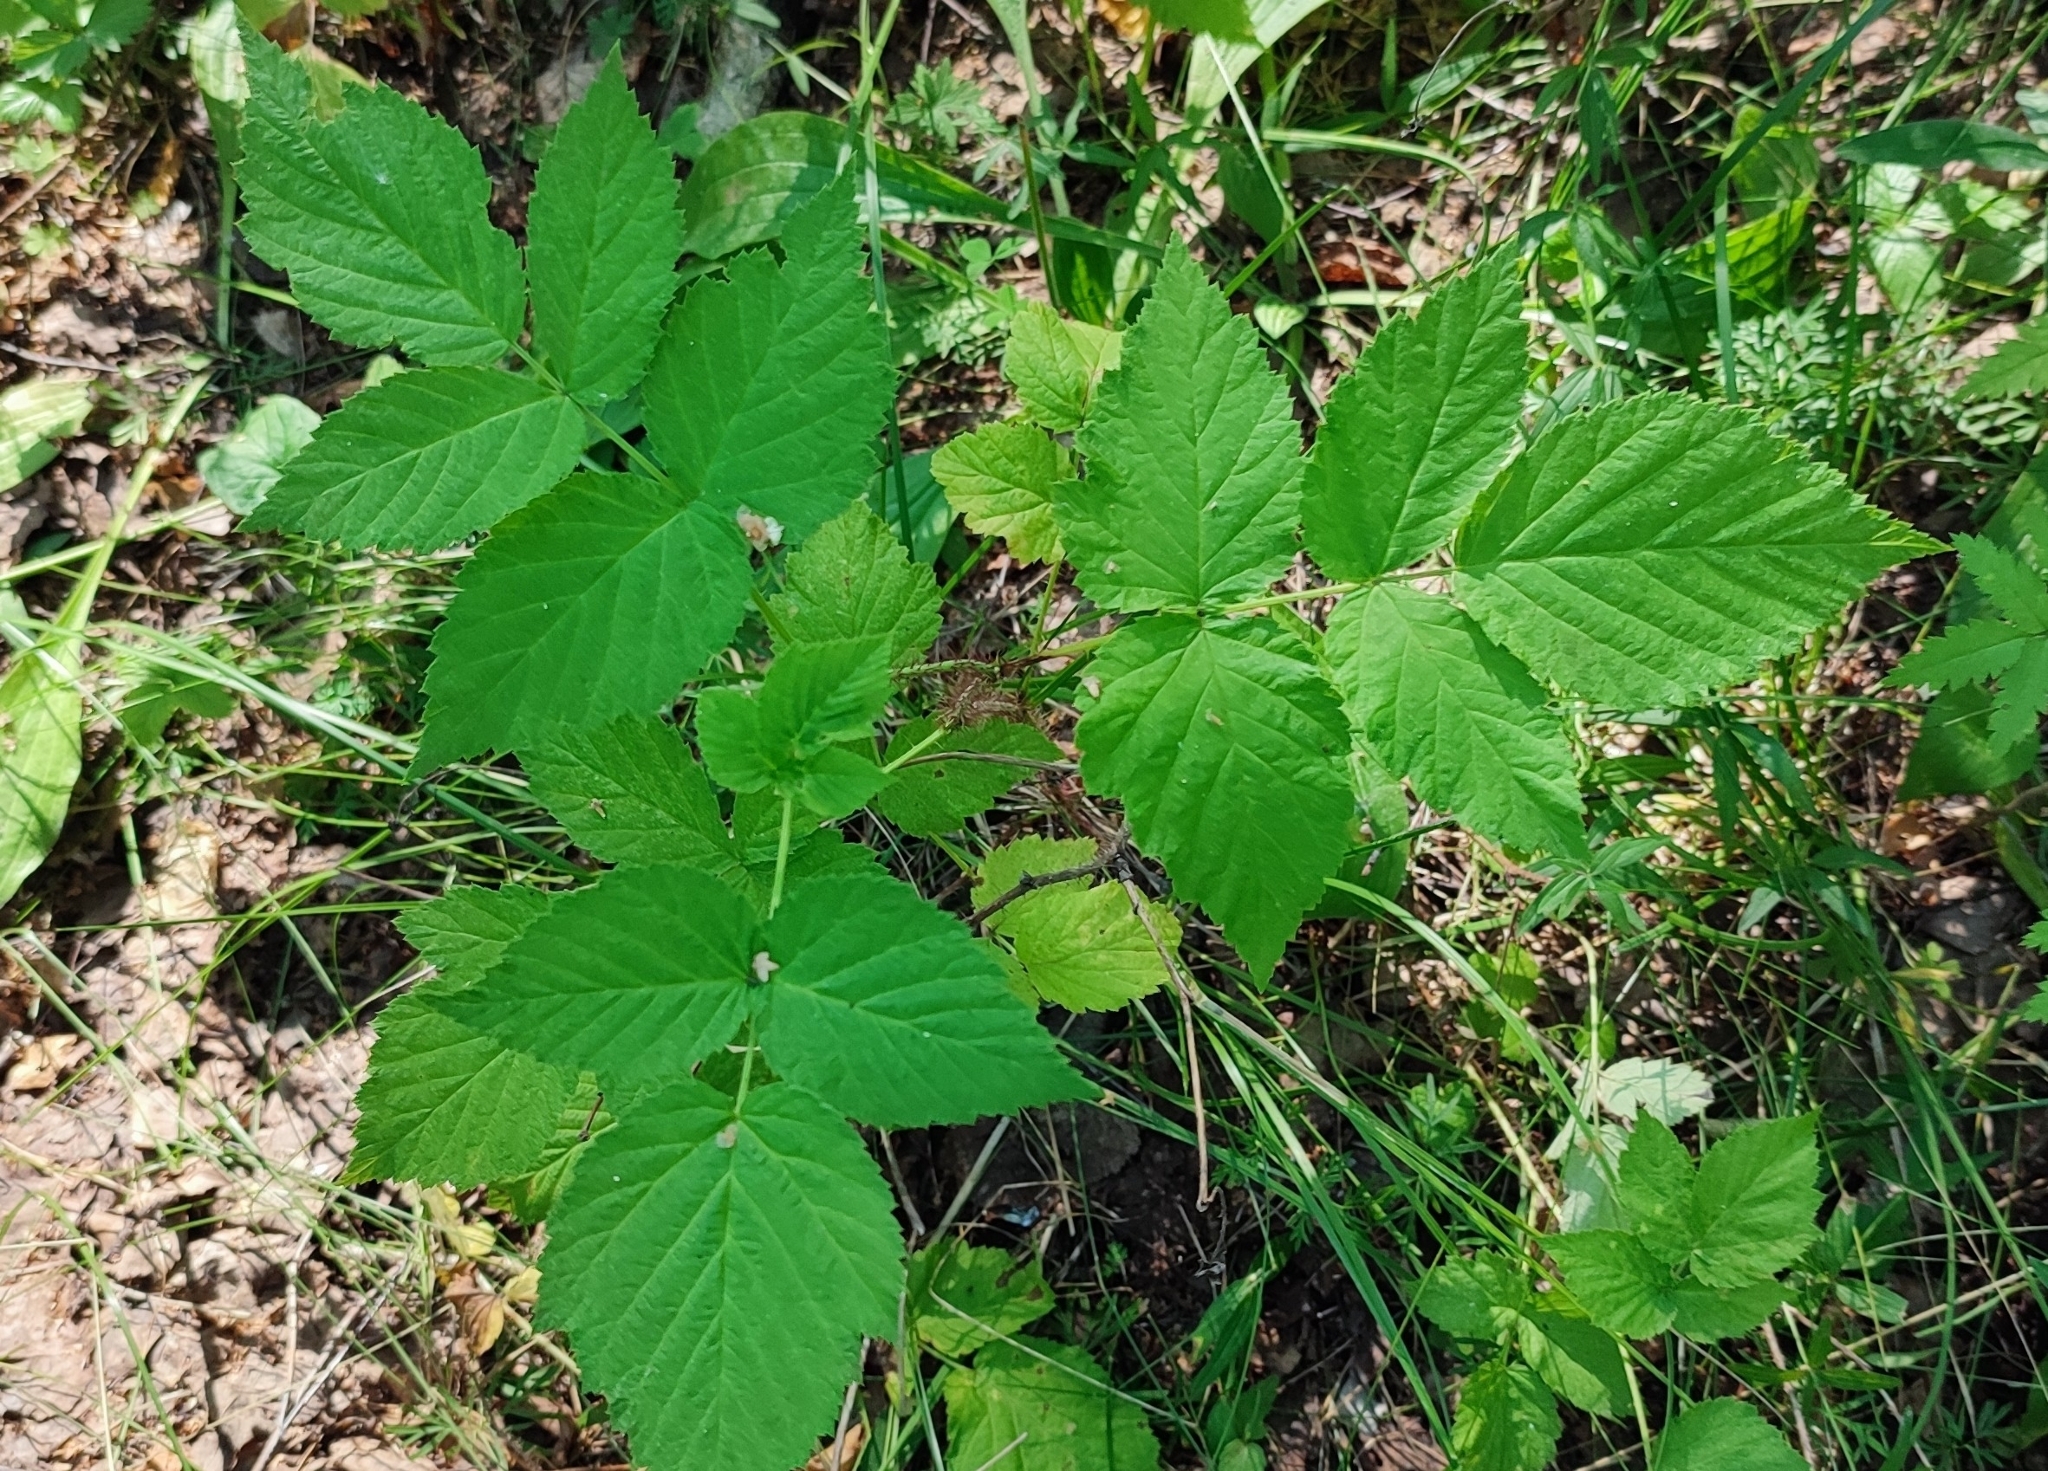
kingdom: Plantae
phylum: Tracheophyta
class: Magnoliopsida
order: Rosales
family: Rosaceae
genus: Rubus
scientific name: Rubus idaeus
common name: Raspberry
